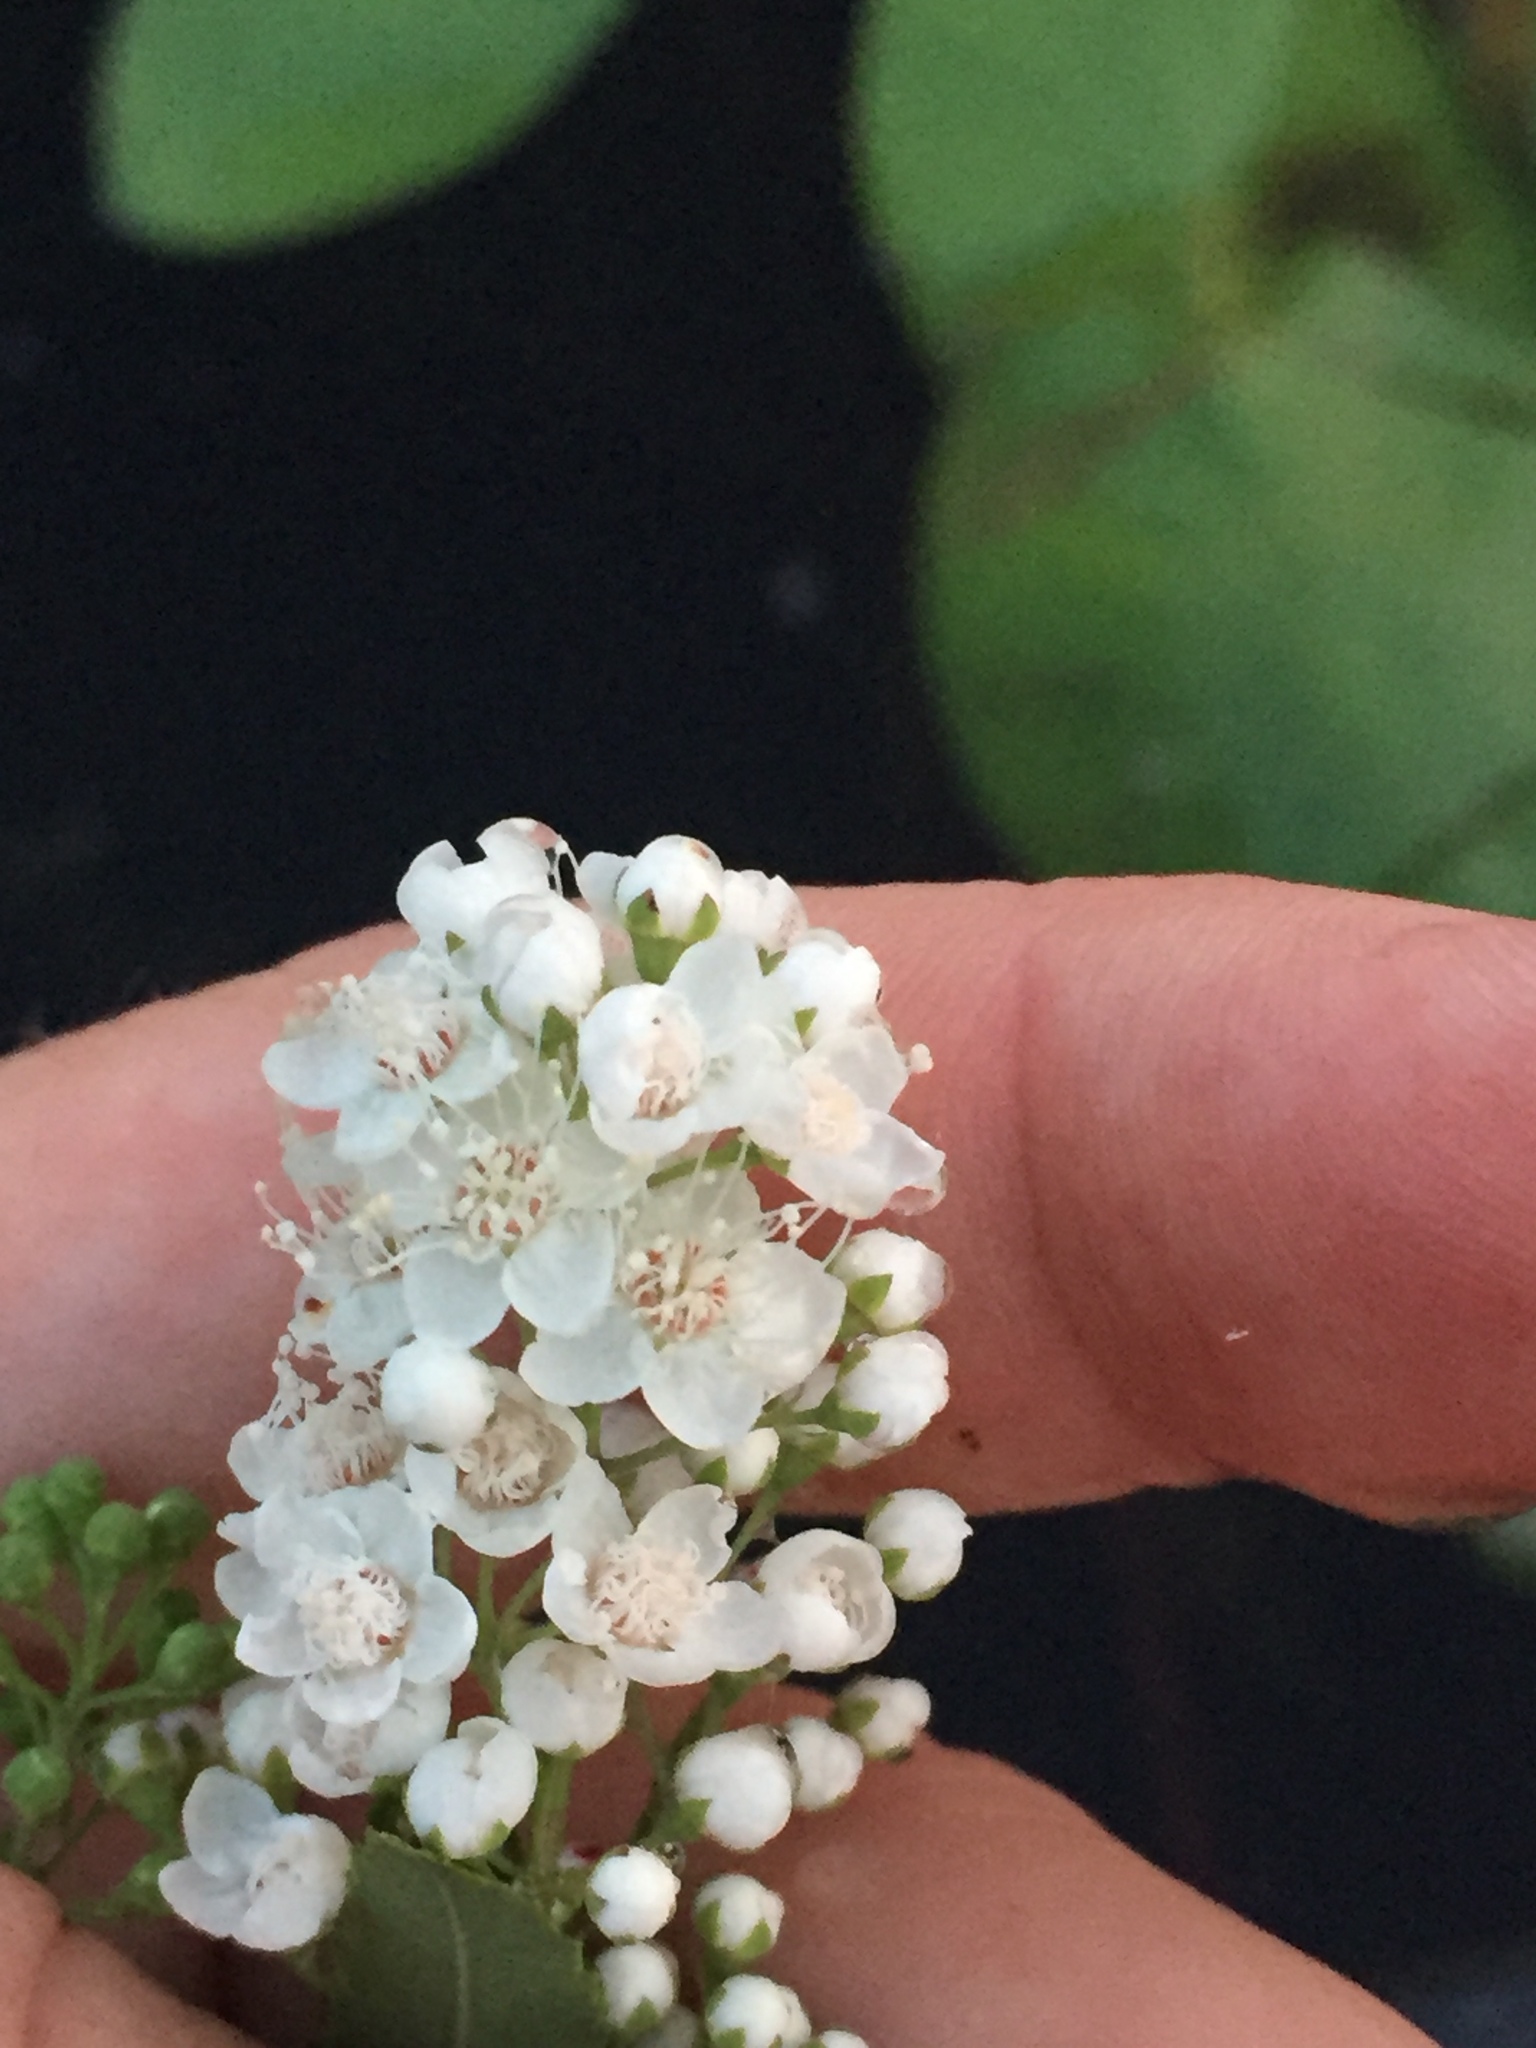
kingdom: Plantae
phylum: Tracheophyta
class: Magnoliopsida
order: Rosales
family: Rosaceae
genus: Spiraea
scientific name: Spiraea alba
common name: Pale bridewort
